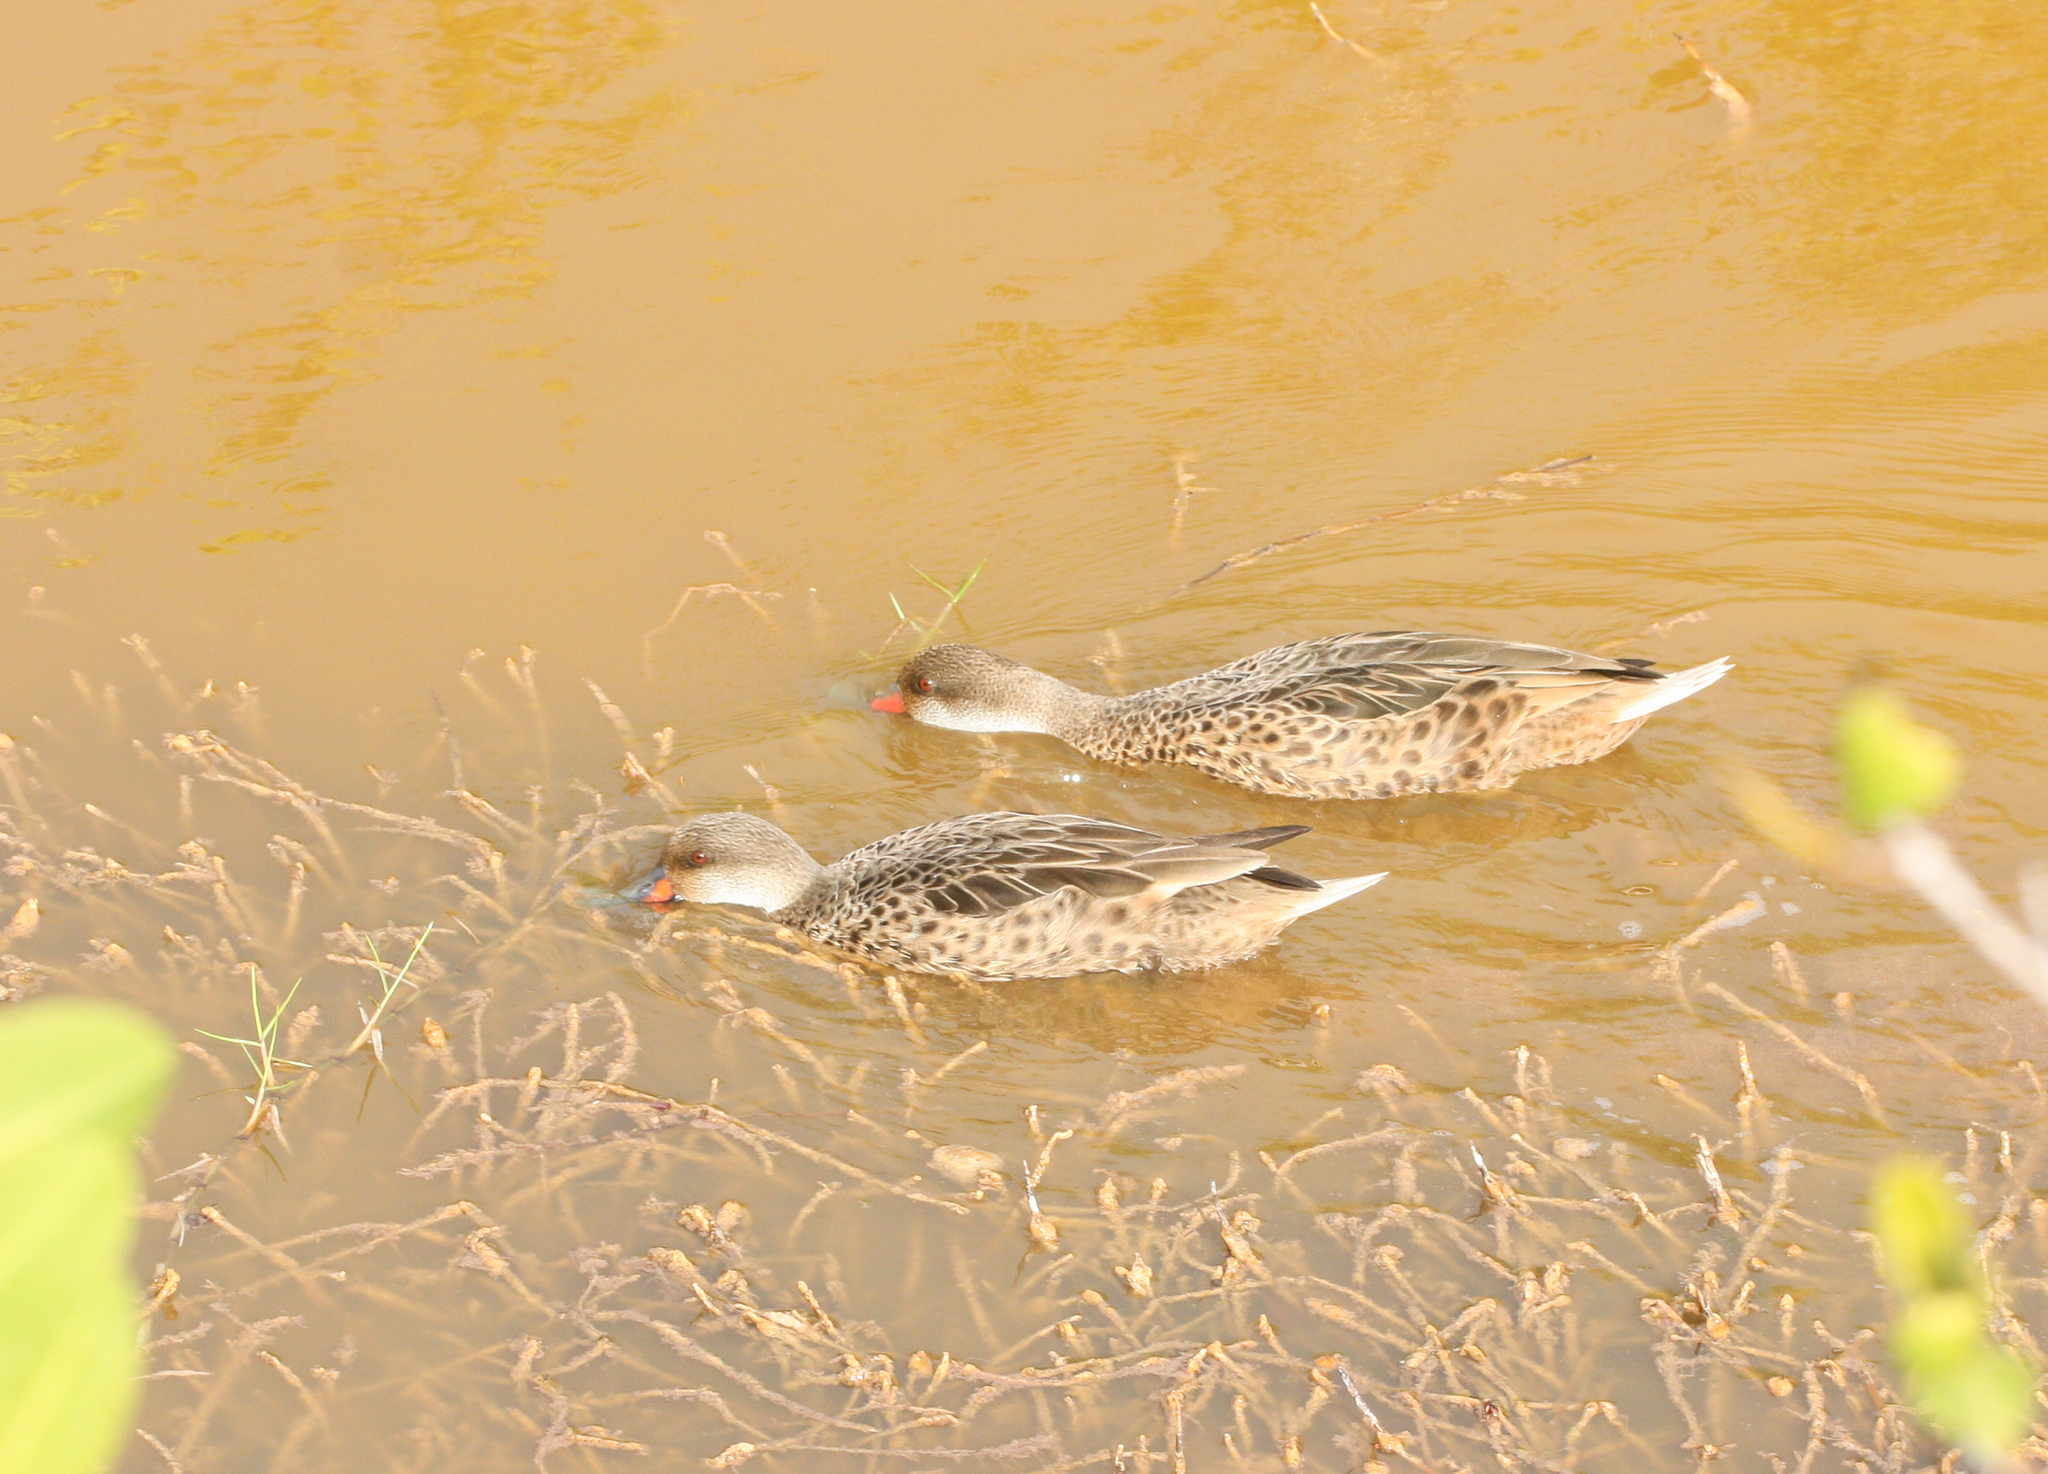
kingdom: Animalia
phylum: Chordata
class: Aves
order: Anseriformes
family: Anatidae
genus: Anas
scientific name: Anas bahamensis
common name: White-cheeked pintail
